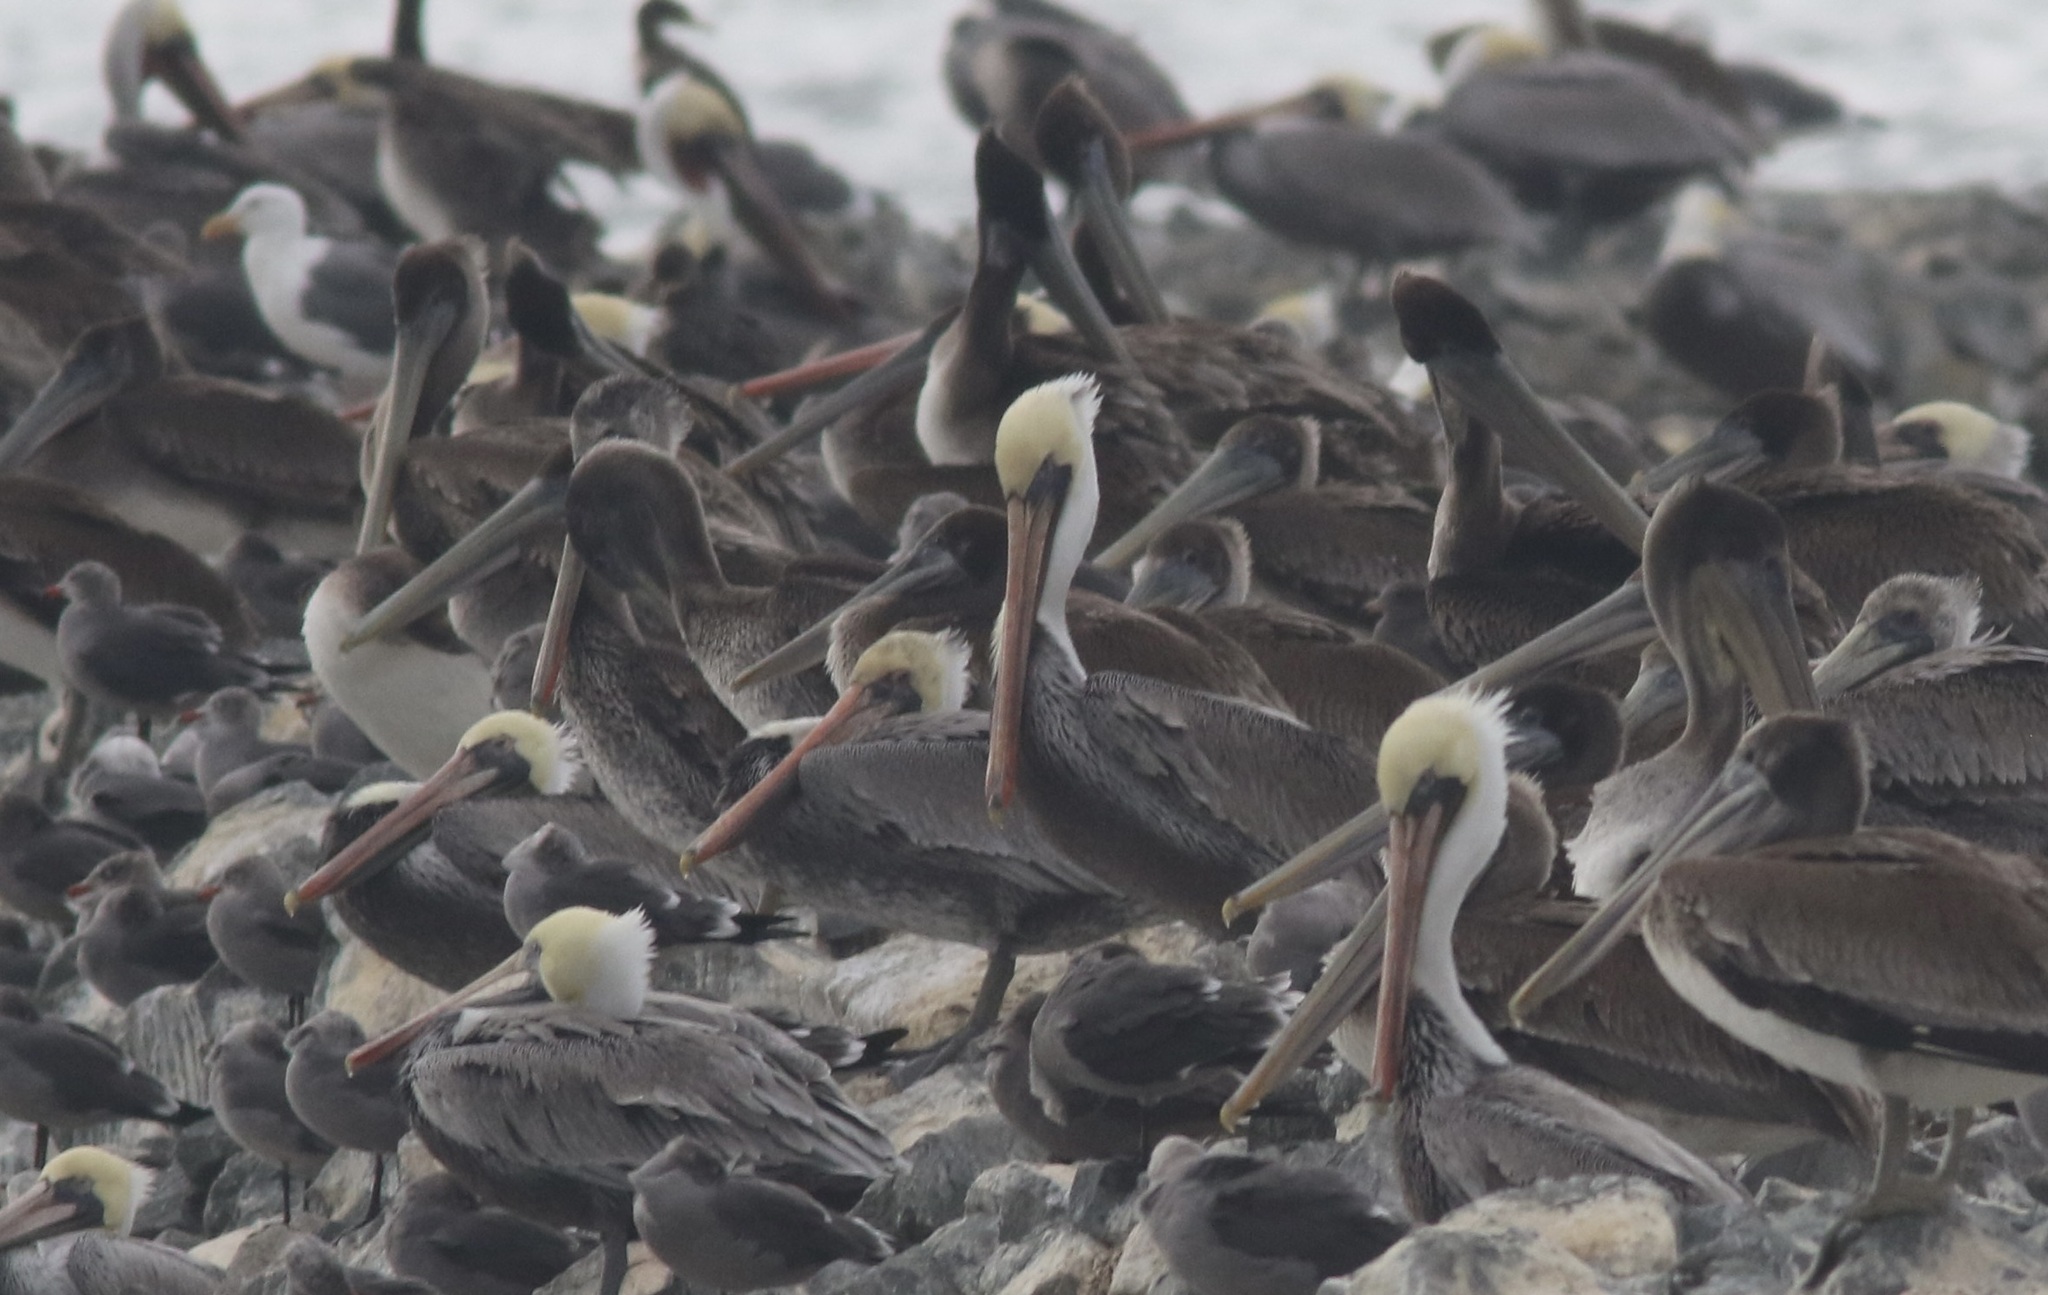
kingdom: Animalia
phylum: Chordata
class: Aves
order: Pelecaniformes
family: Pelecanidae
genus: Pelecanus
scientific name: Pelecanus occidentalis
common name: Brown pelican
